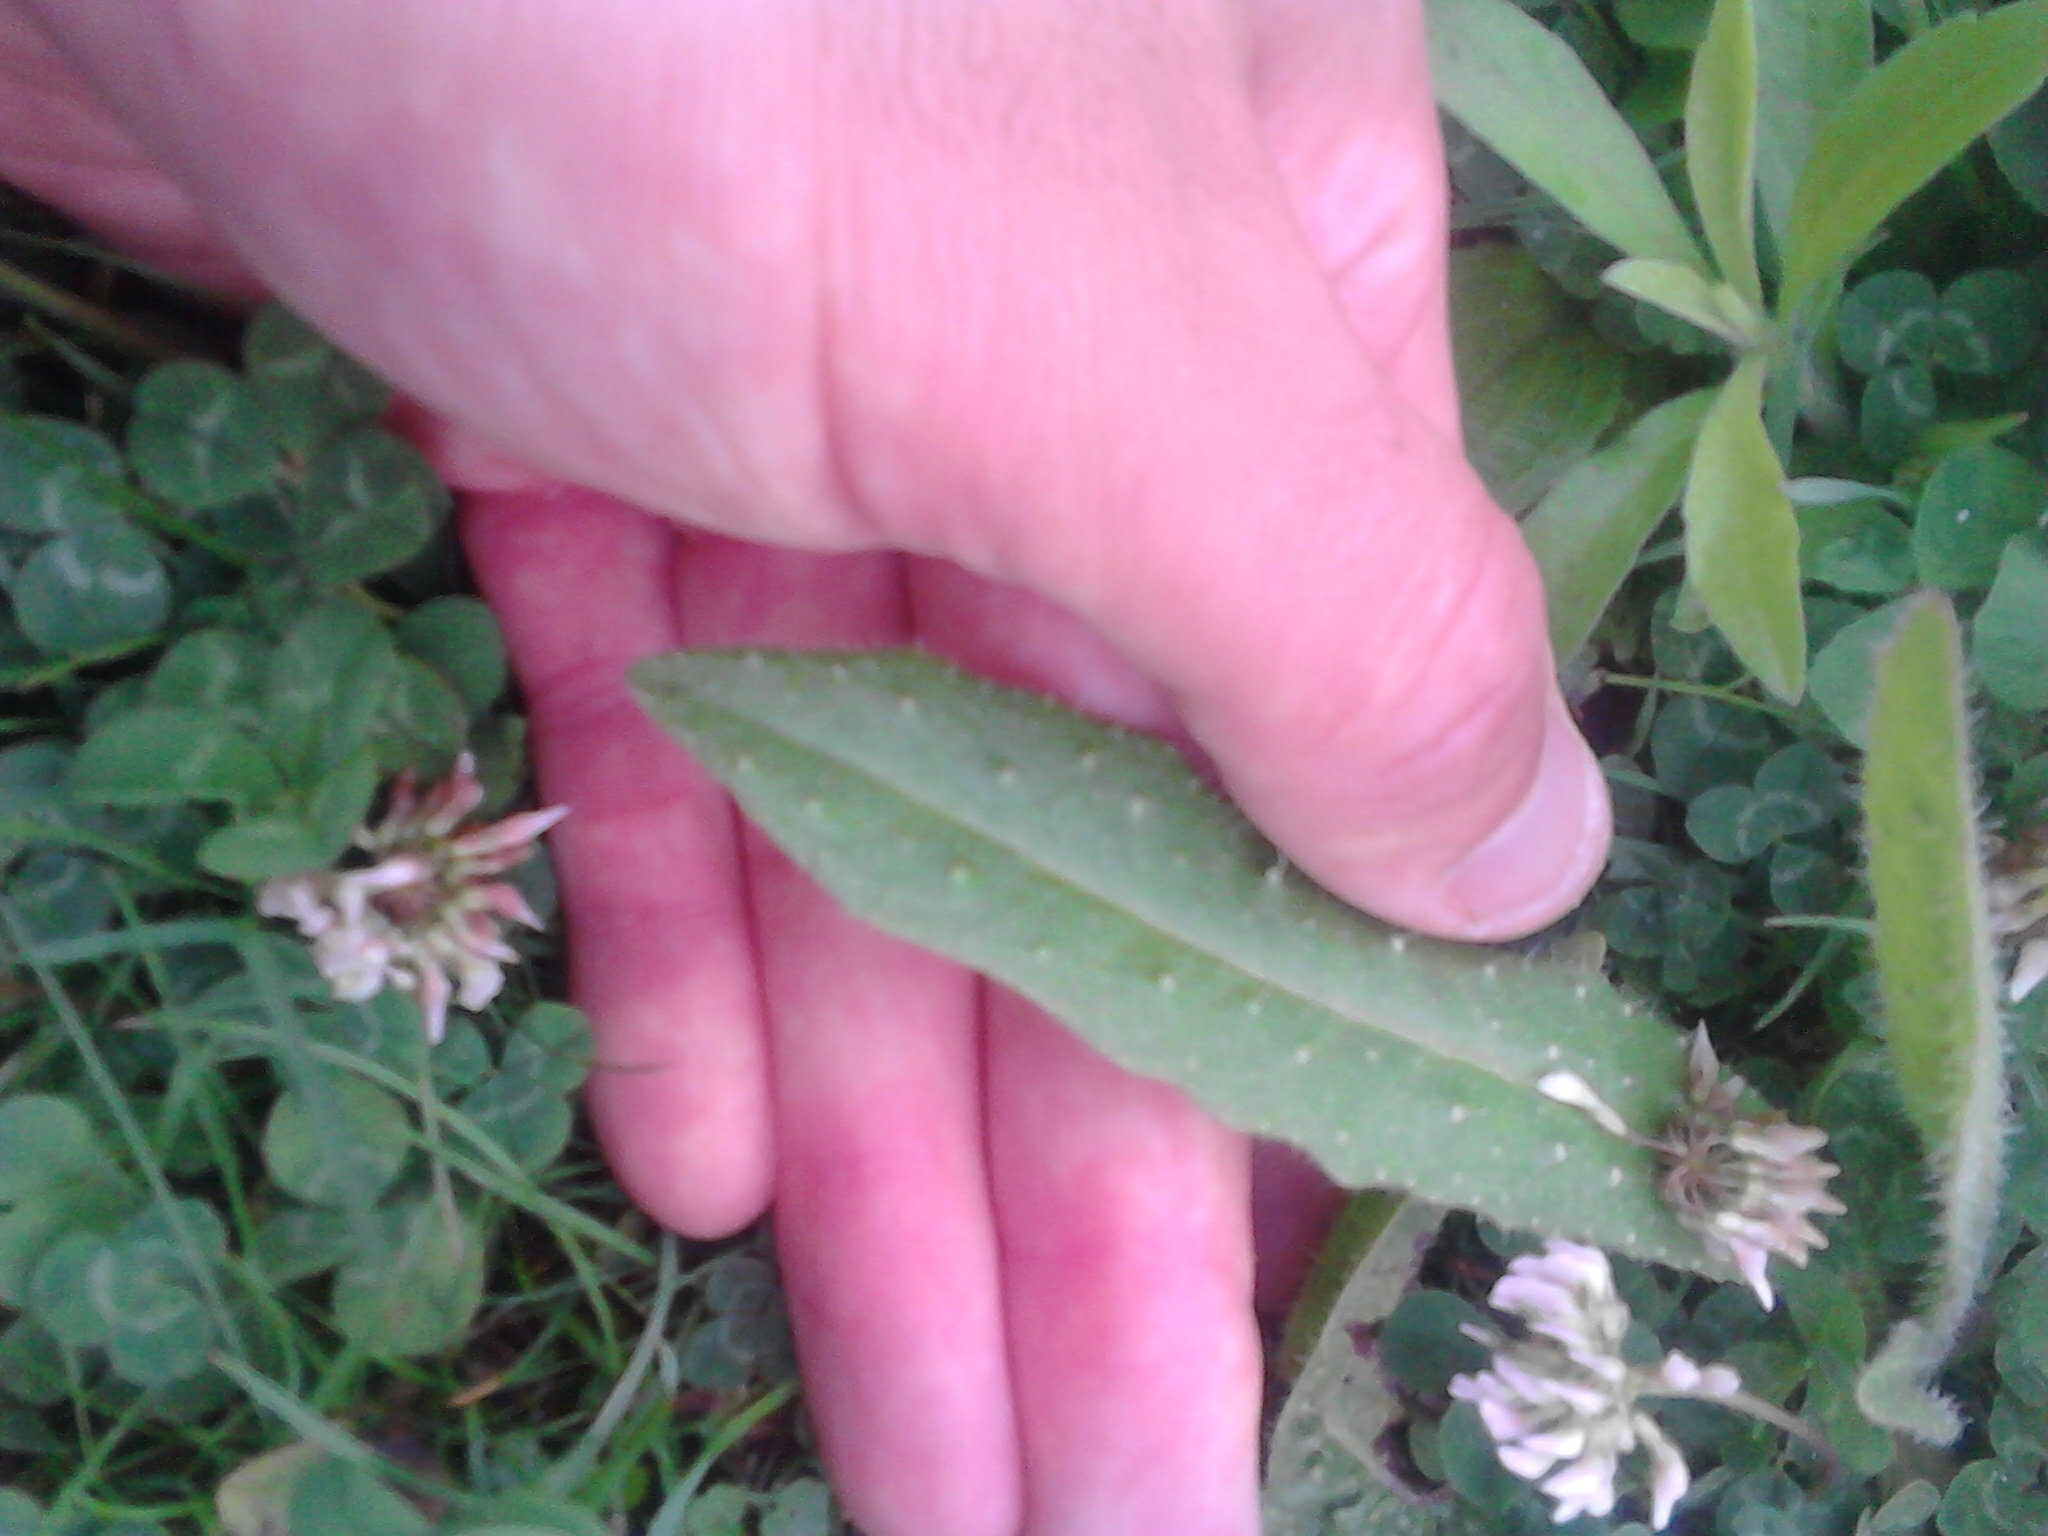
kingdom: Plantae
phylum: Tracheophyta
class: Magnoliopsida
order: Asterales
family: Asteraceae
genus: Helminthotheca
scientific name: Helminthotheca echioides
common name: Ox-tongue
